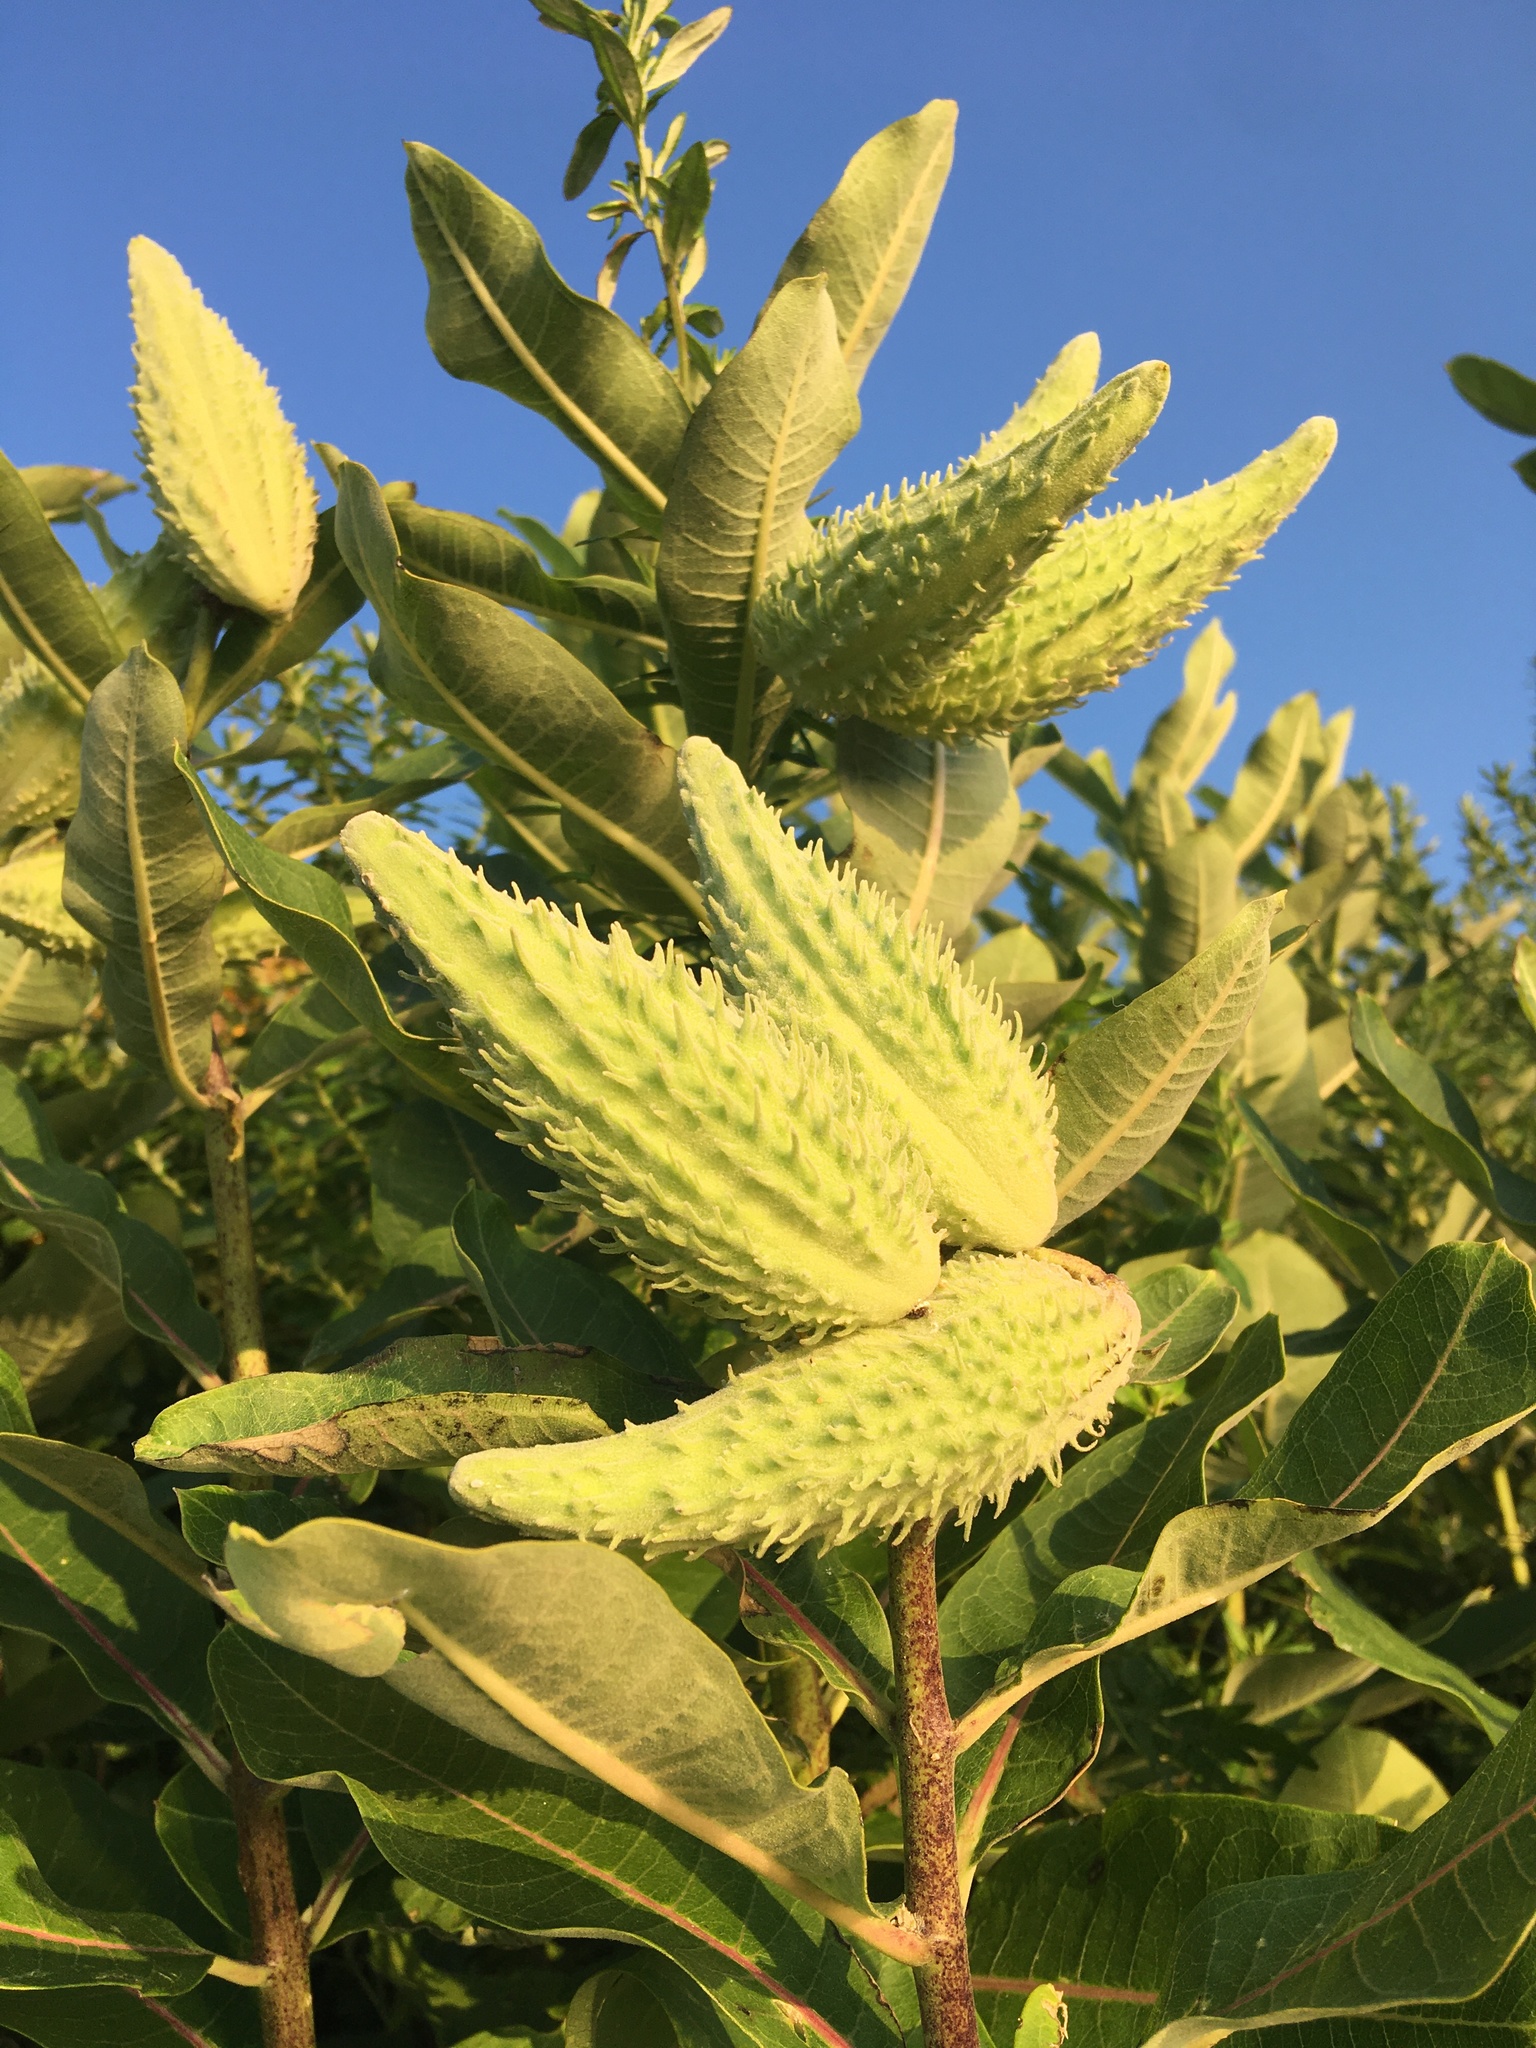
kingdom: Plantae
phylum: Tracheophyta
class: Magnoliopsida
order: Gentianales
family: Apocynaceae
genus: Asclepias
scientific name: Asclepias syriaca
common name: Common milkweed
